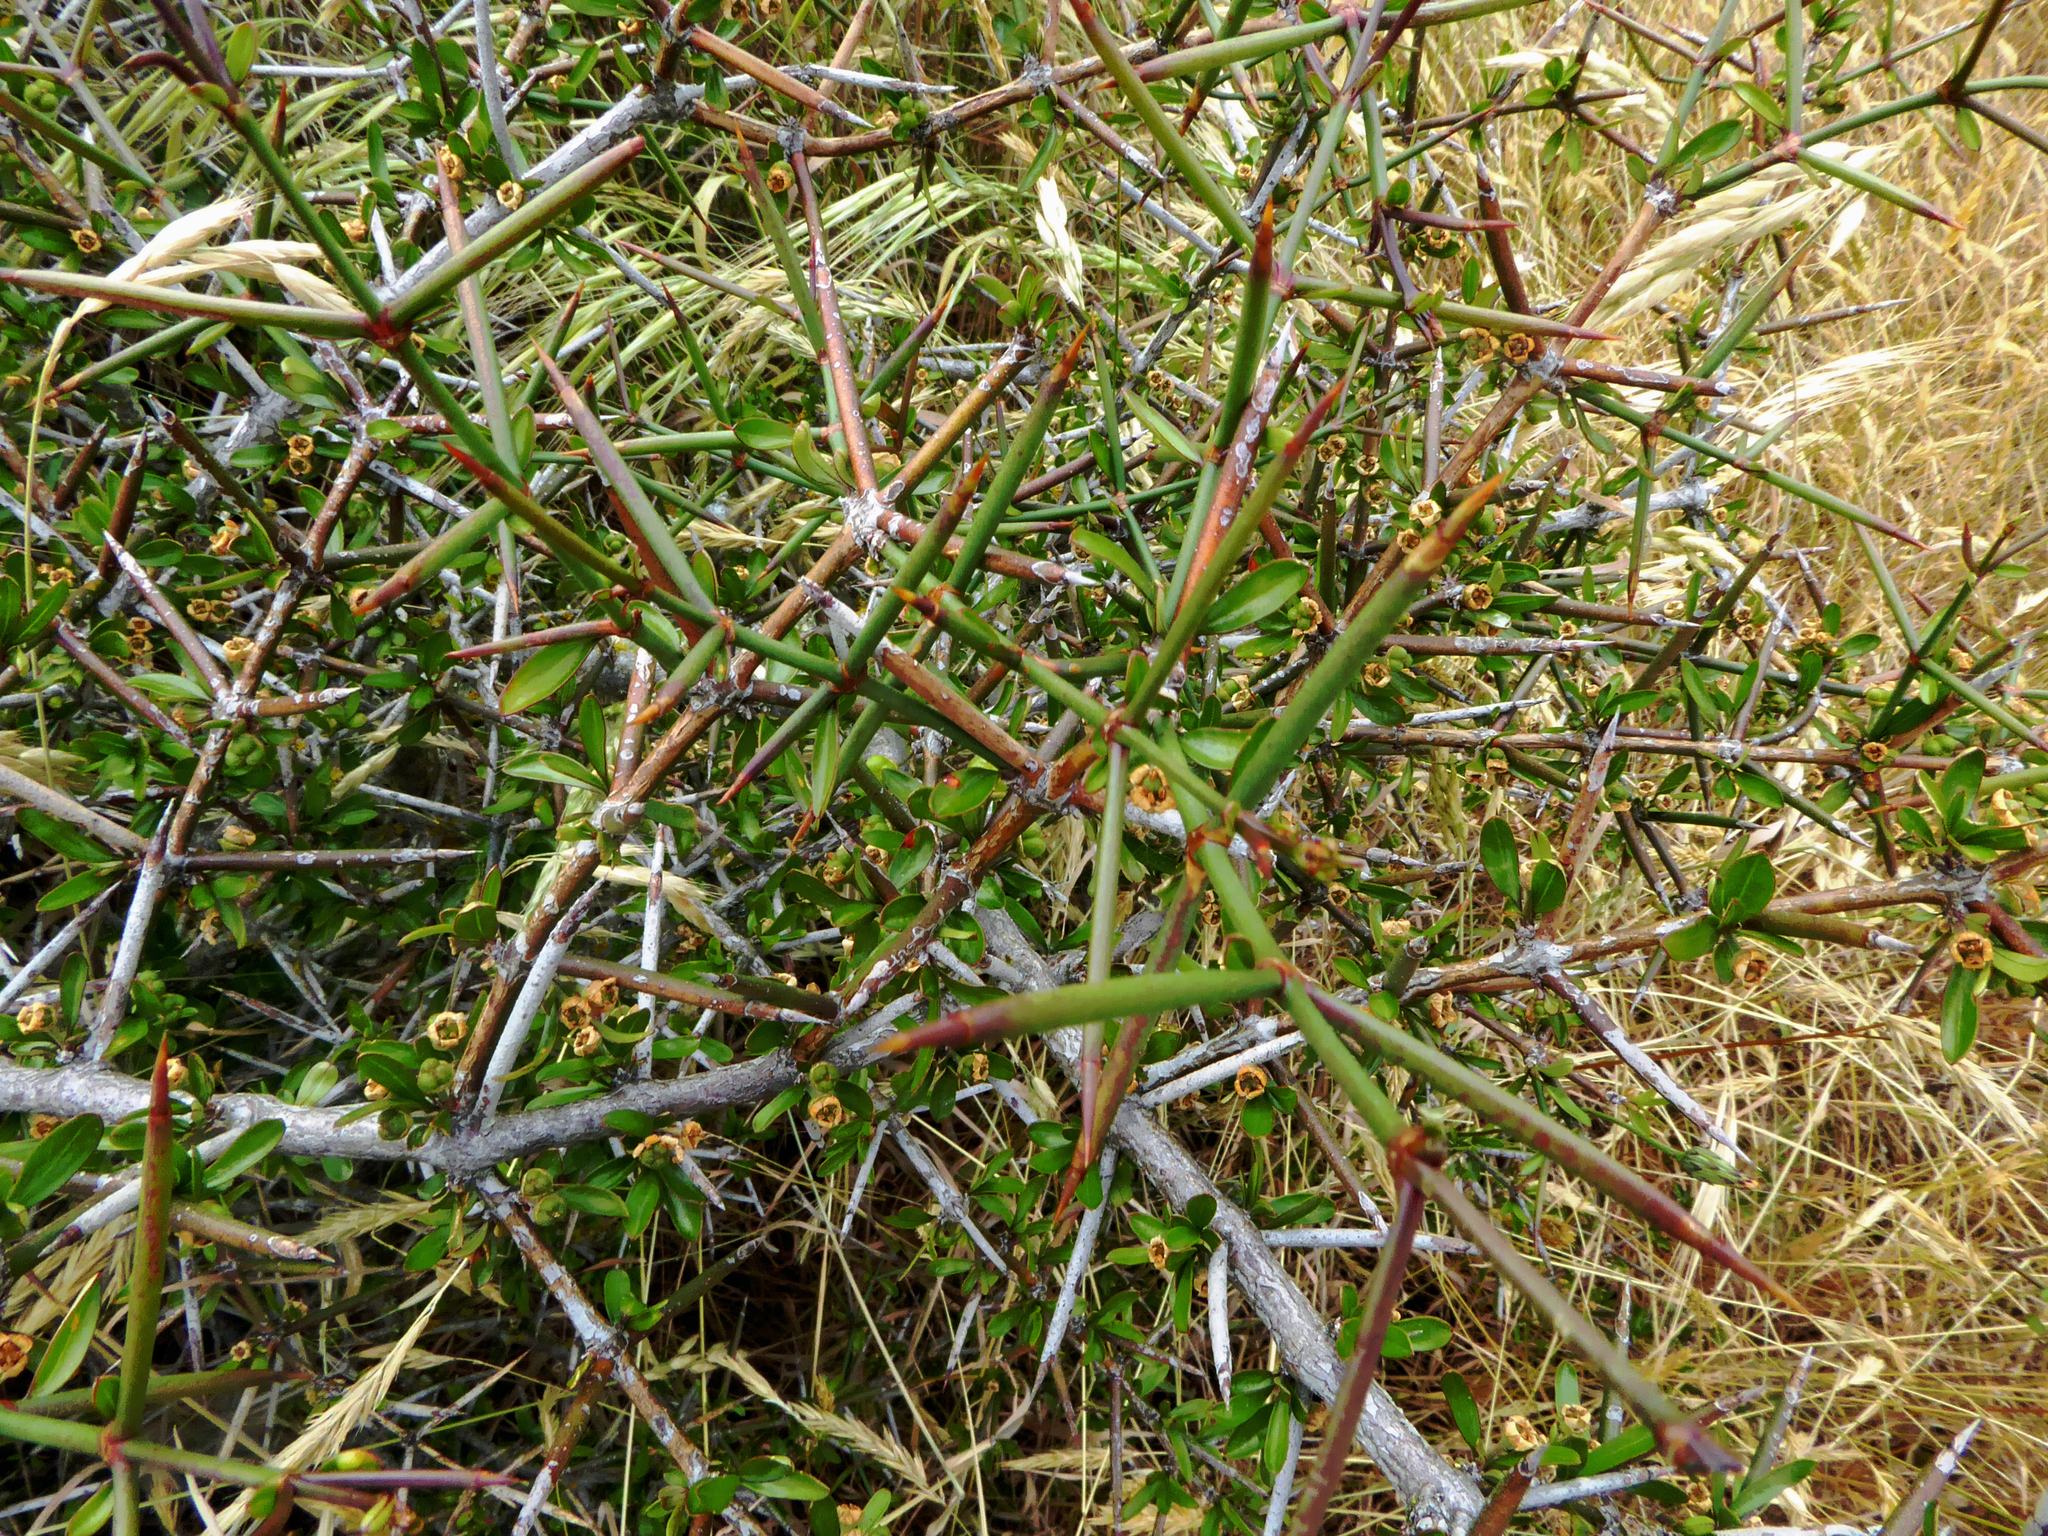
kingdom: Plantae
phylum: Tracheophyta
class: Magnoliopsida
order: Rosales
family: Rhamnaceae
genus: Discaria
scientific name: Discaria toumatou
